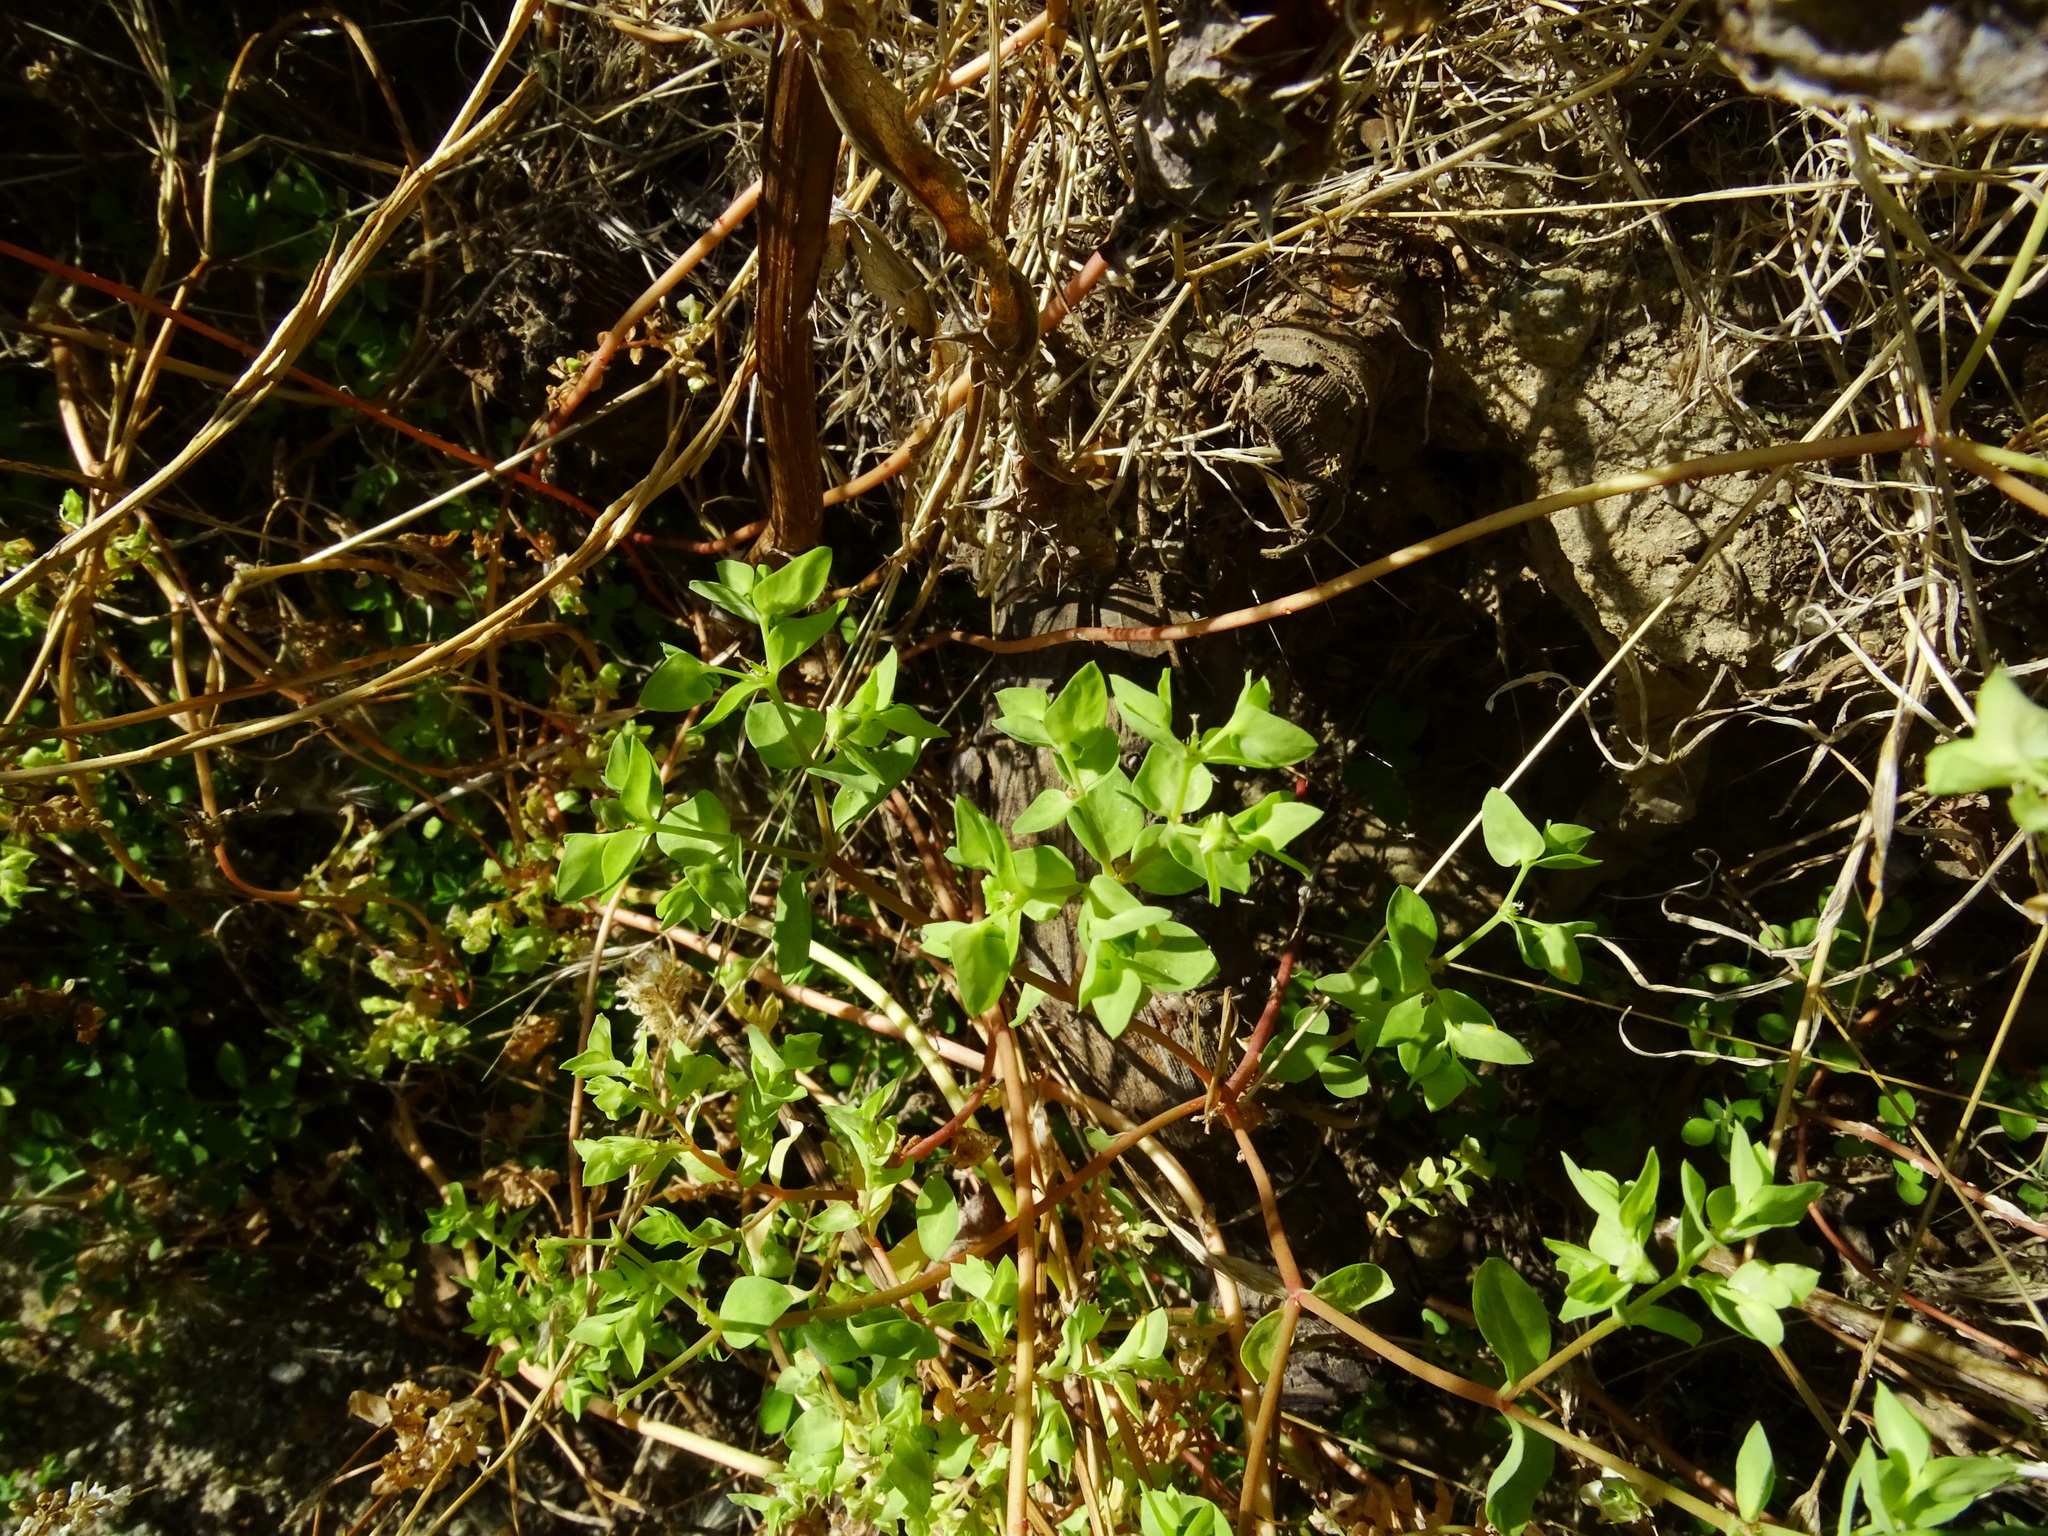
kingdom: Plantae
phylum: Tracheophyta
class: Magnoliopsida
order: Malpighiales
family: Euphorbiaceae
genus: Euphorbia
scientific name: Euphorbia peplus
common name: Petty spurge
